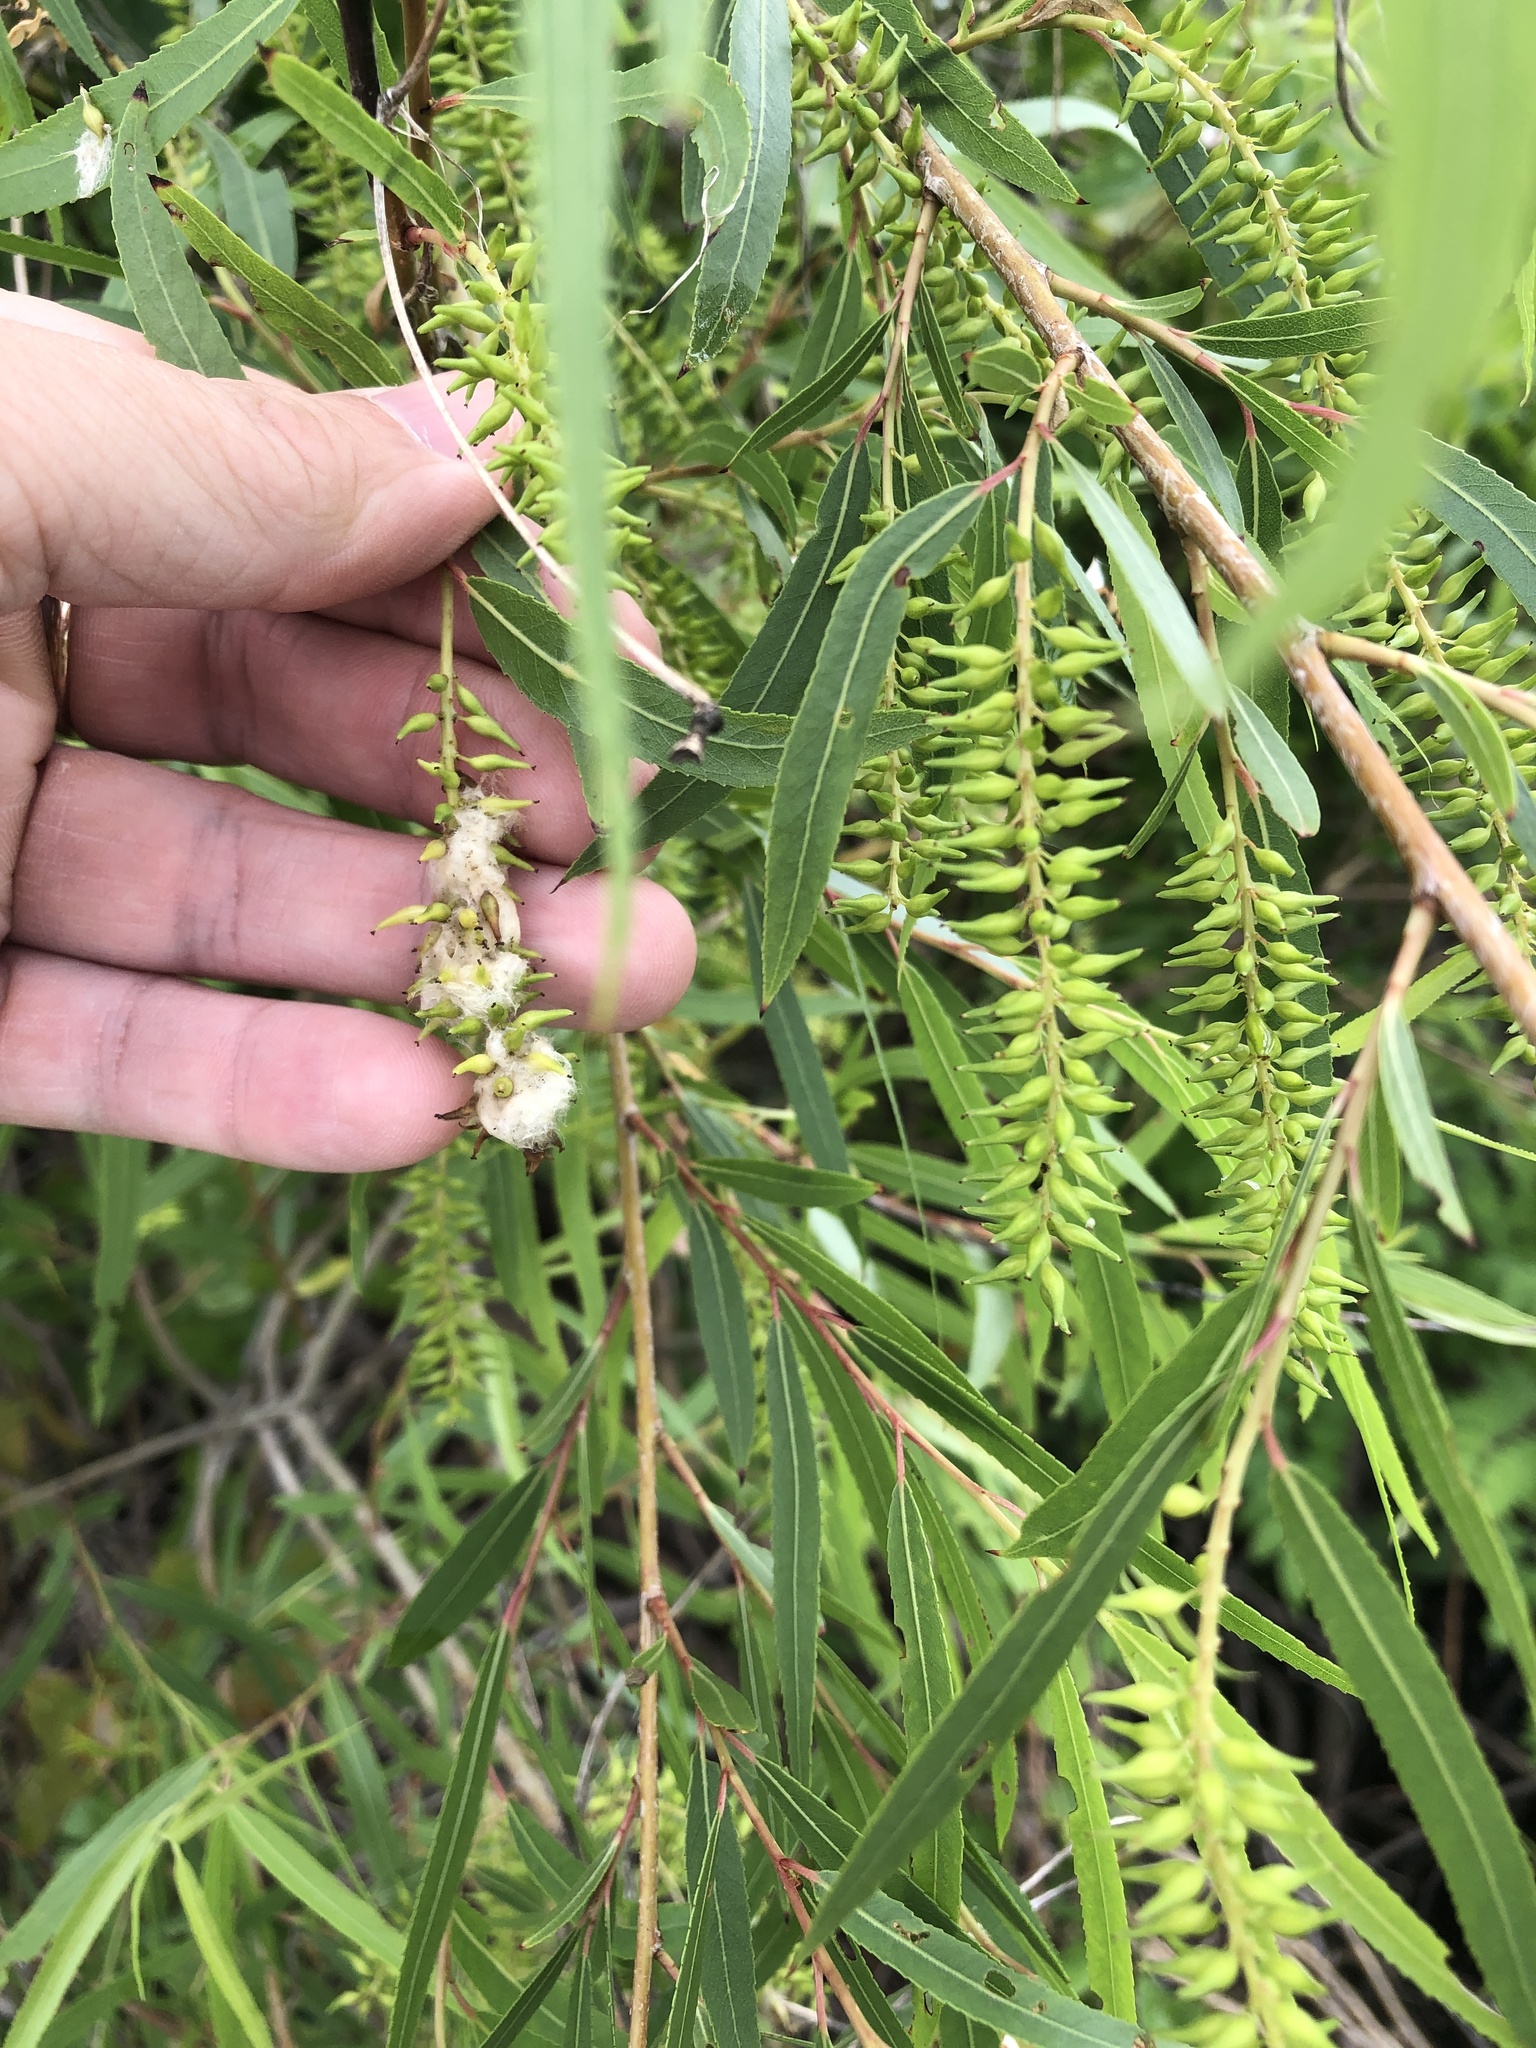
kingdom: Plantae
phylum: Tracheophyta
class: Magnoliopsida
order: Malpighiales
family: Salicaceae
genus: Salix
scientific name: Salix nigra
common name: Black willow
